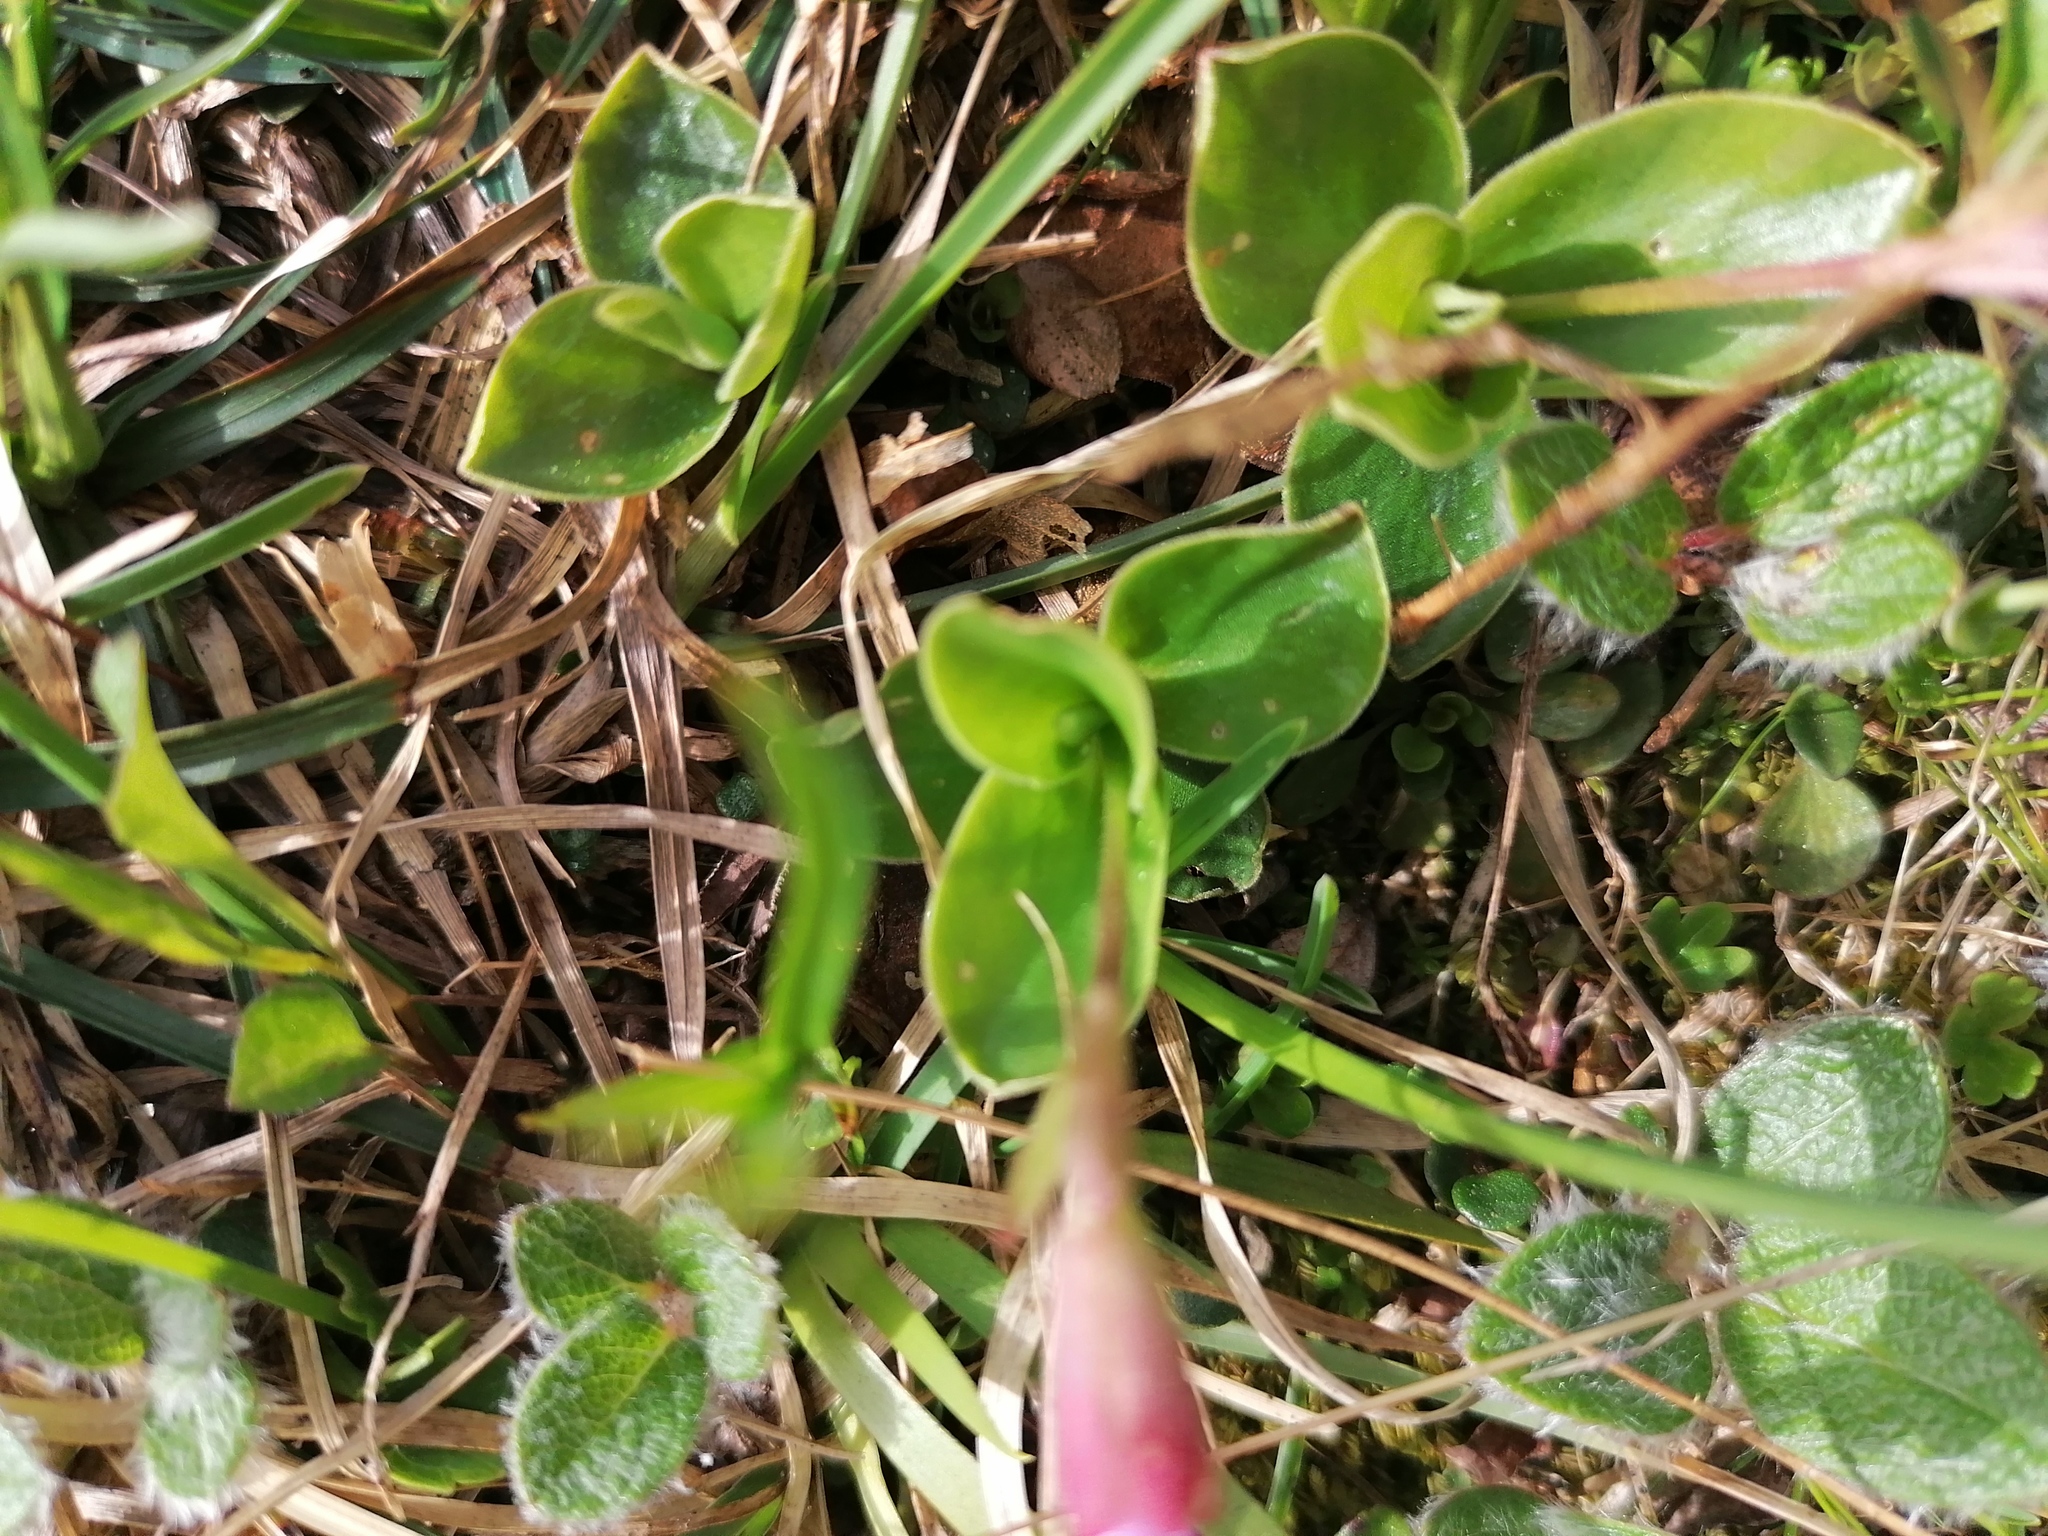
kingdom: Plantae
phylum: Tracheophyta
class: Magnoliopsida
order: Ericales
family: Primulaceae
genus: Primula
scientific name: Primula clusiana
